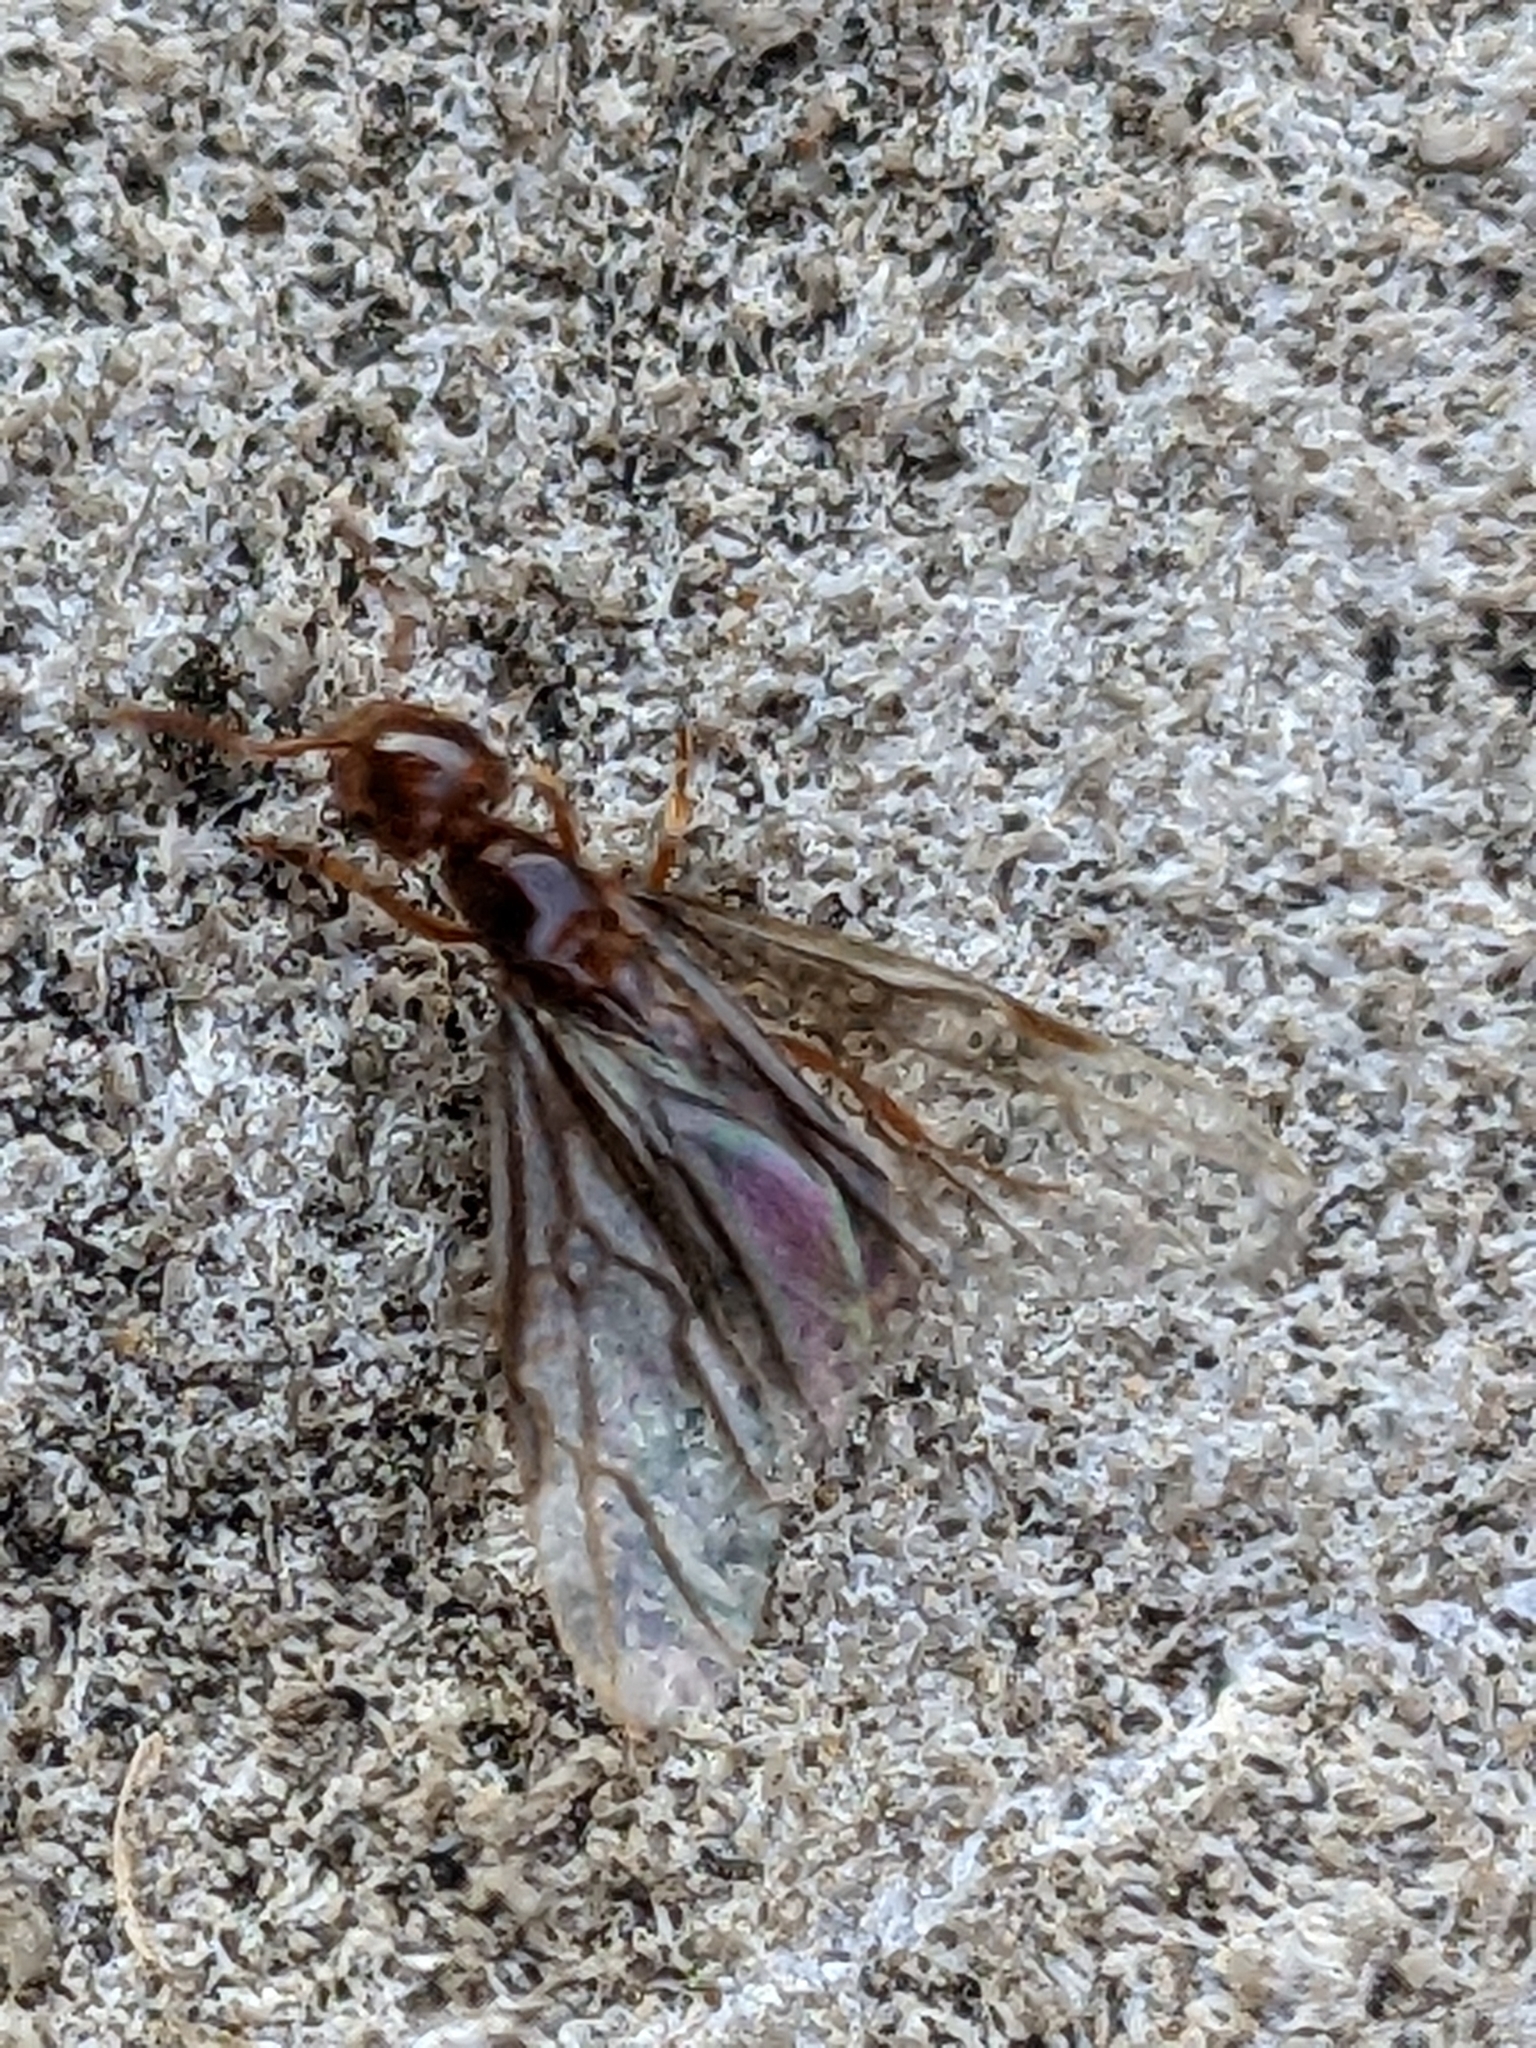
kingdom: Animalia
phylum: Arthropoda
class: Insecta
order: Hymenoptera
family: Formicidae
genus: Lasius
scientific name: Lasius claviger
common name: Common citronella ant
